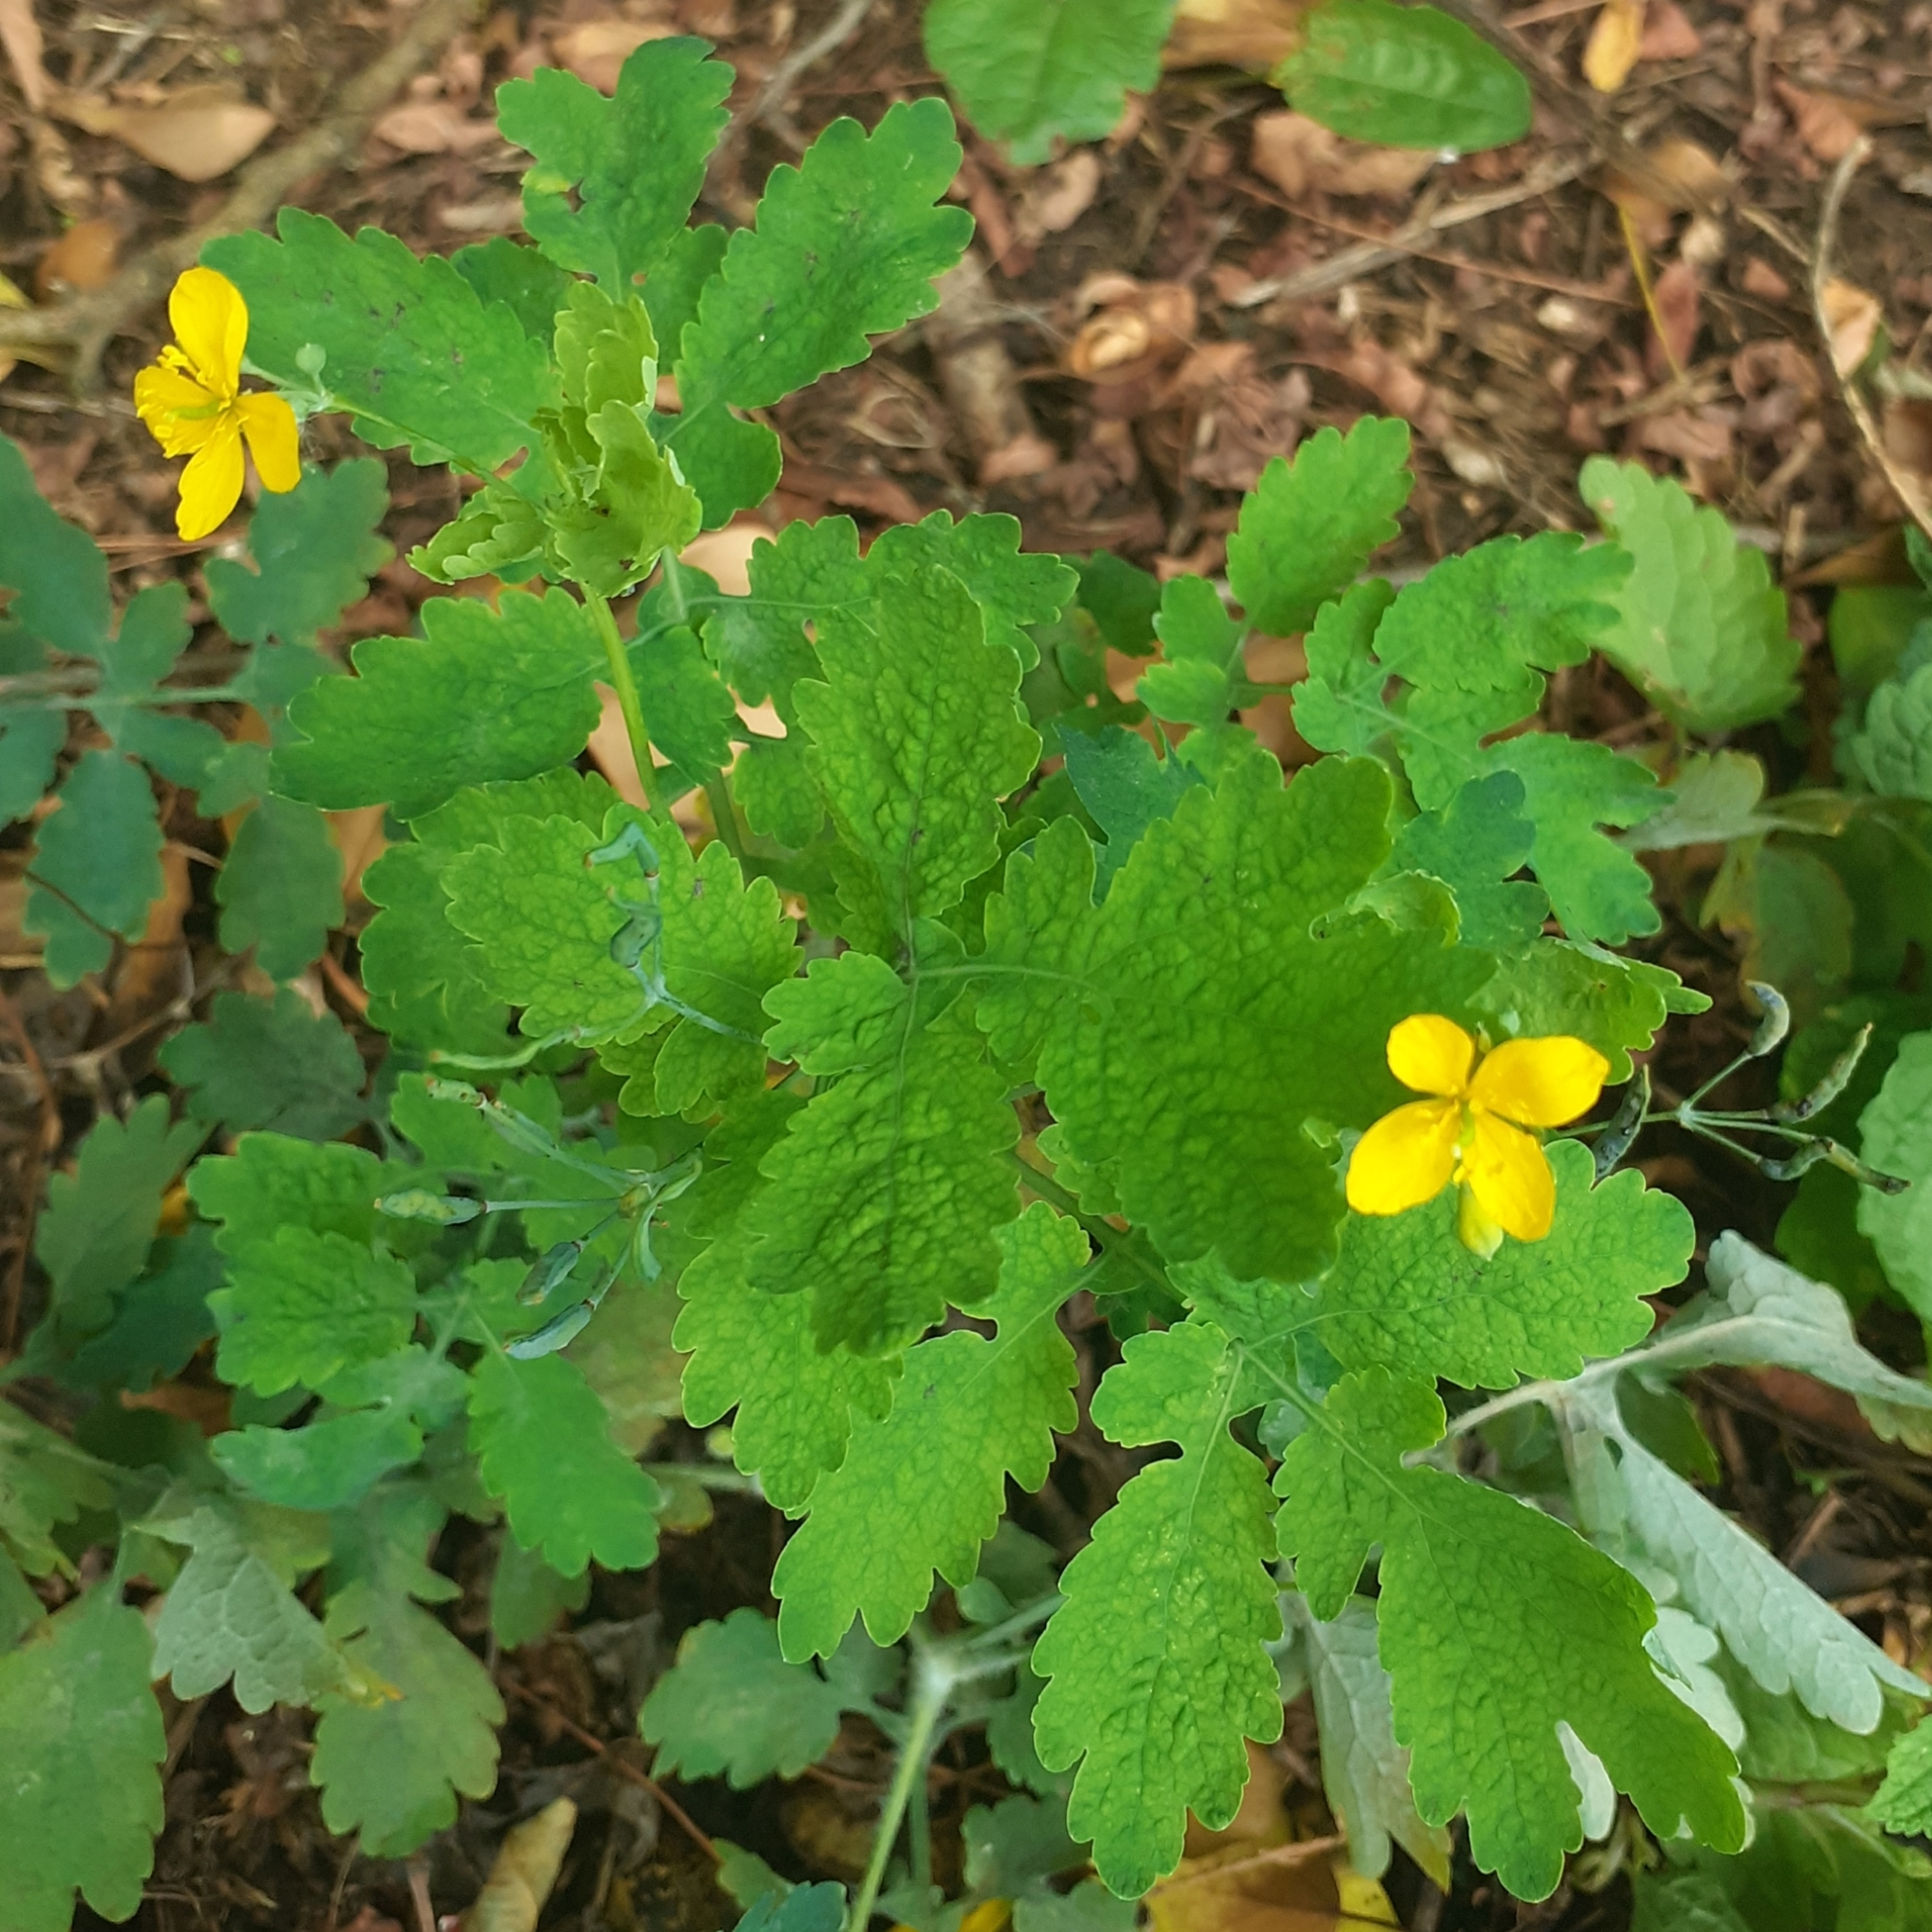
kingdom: Plantae
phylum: Tracheophyta
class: Magnoliopsida
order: Ranunculales
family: Papaveraceae
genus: Chelidonium
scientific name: Chelidonium majus
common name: Greater celandine
